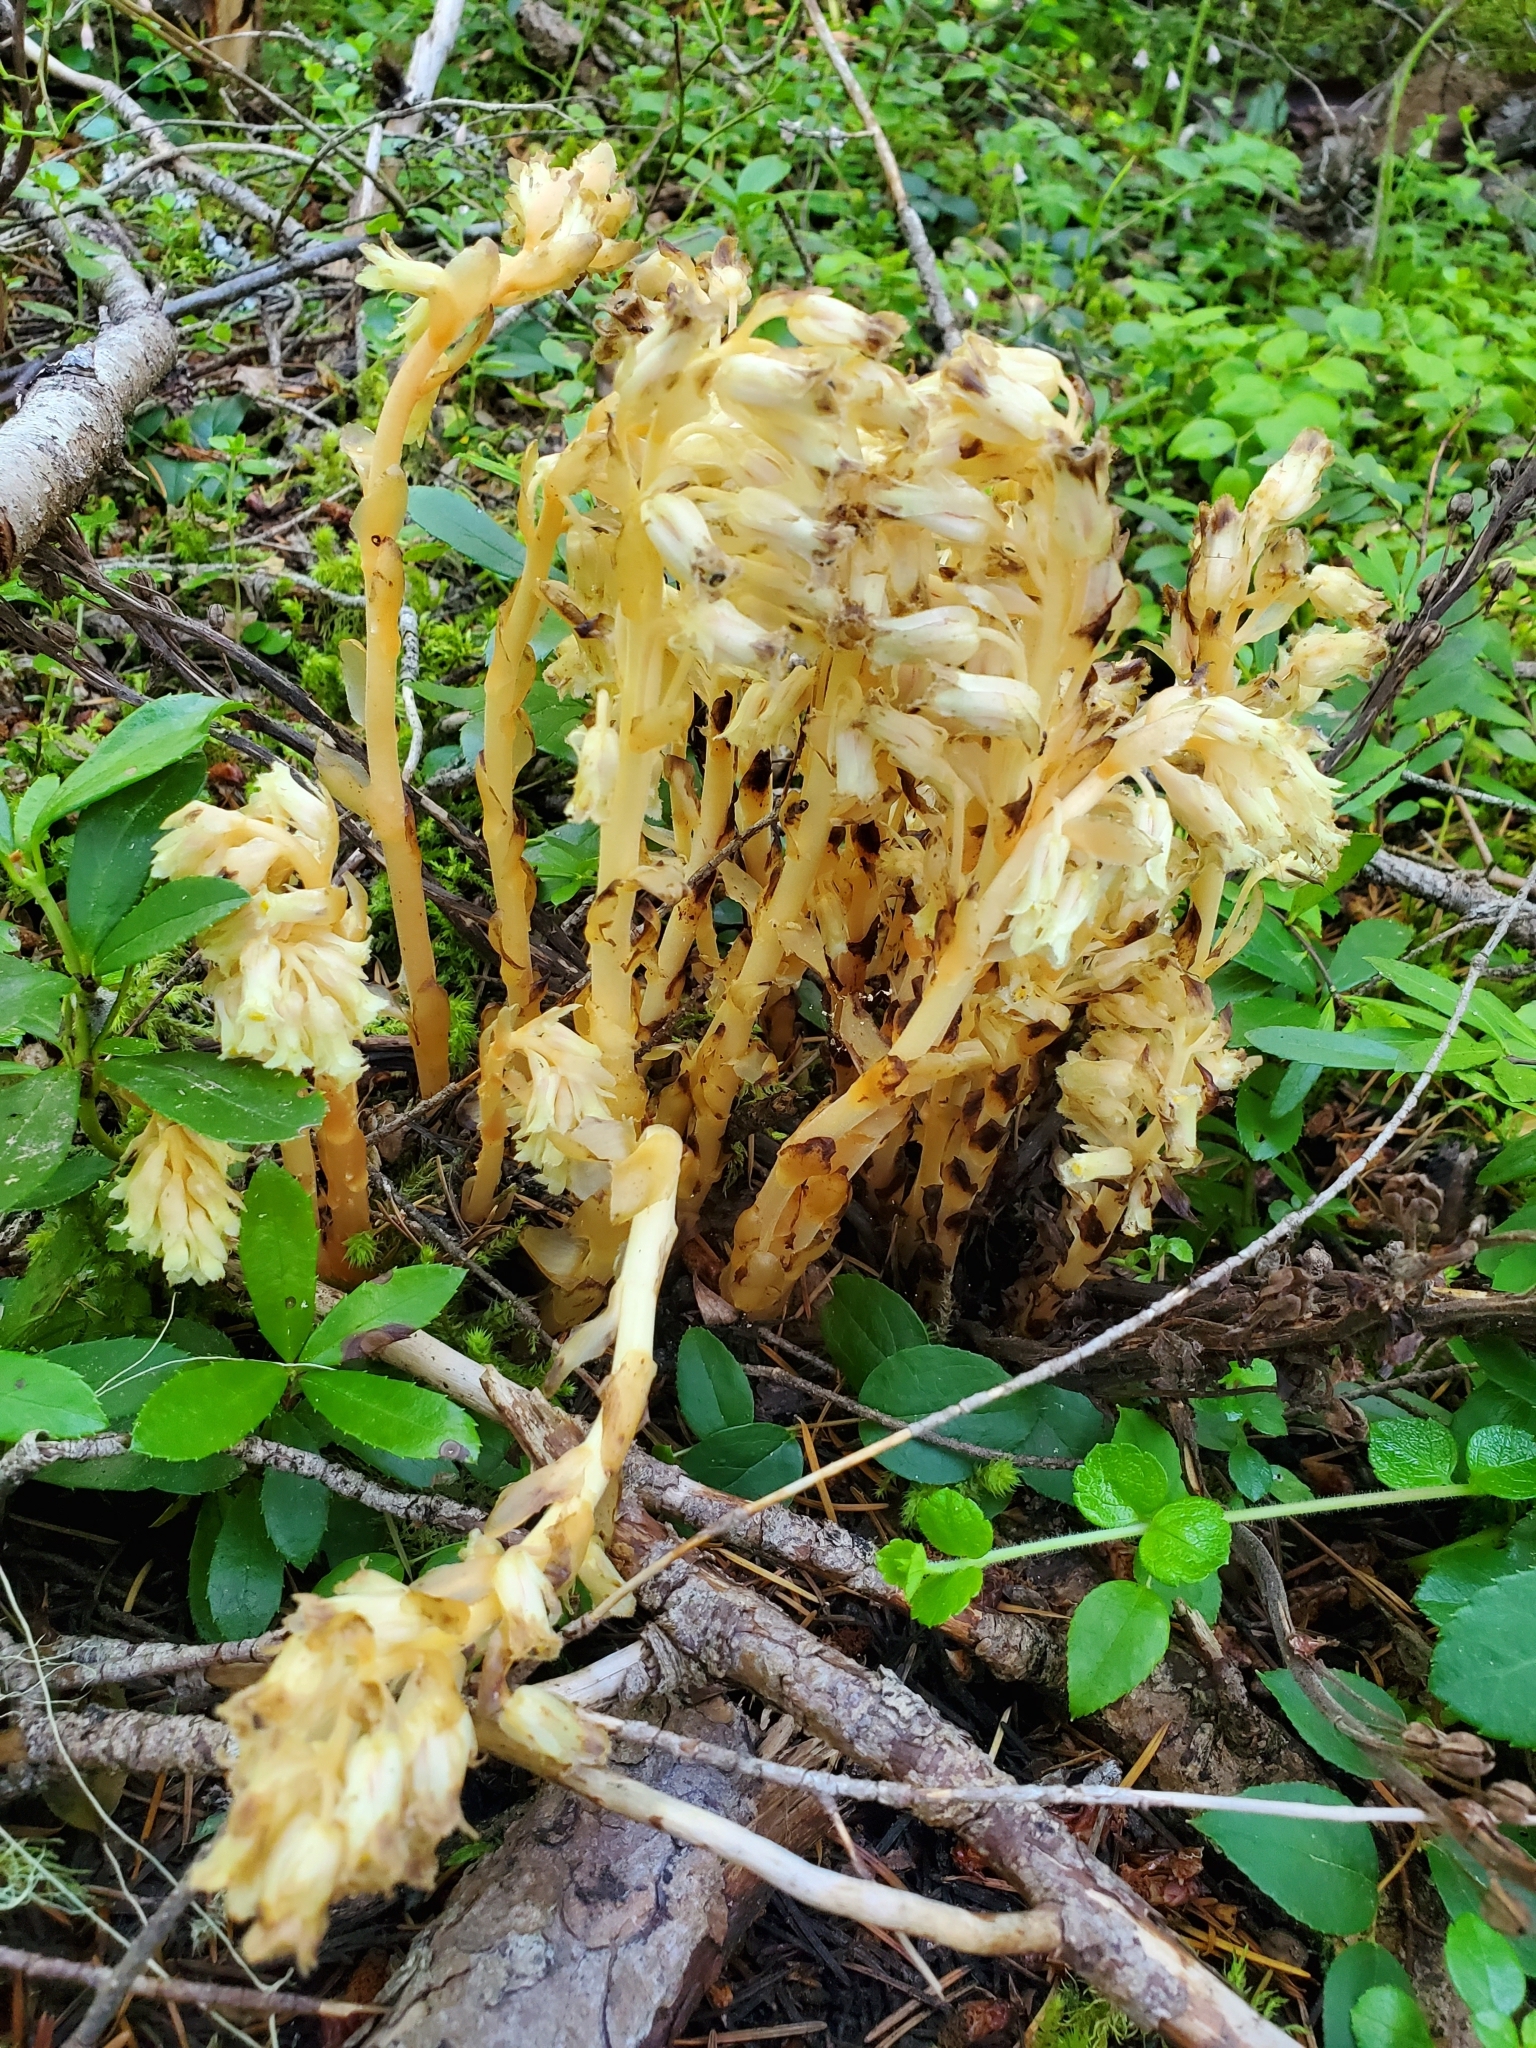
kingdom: Plantae
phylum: Tracheophyta
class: Magnoliopsida
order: Ericales
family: Ericaceae
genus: Hypopitys
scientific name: Hypopitys monotropa
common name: Yellow bird's-nest
